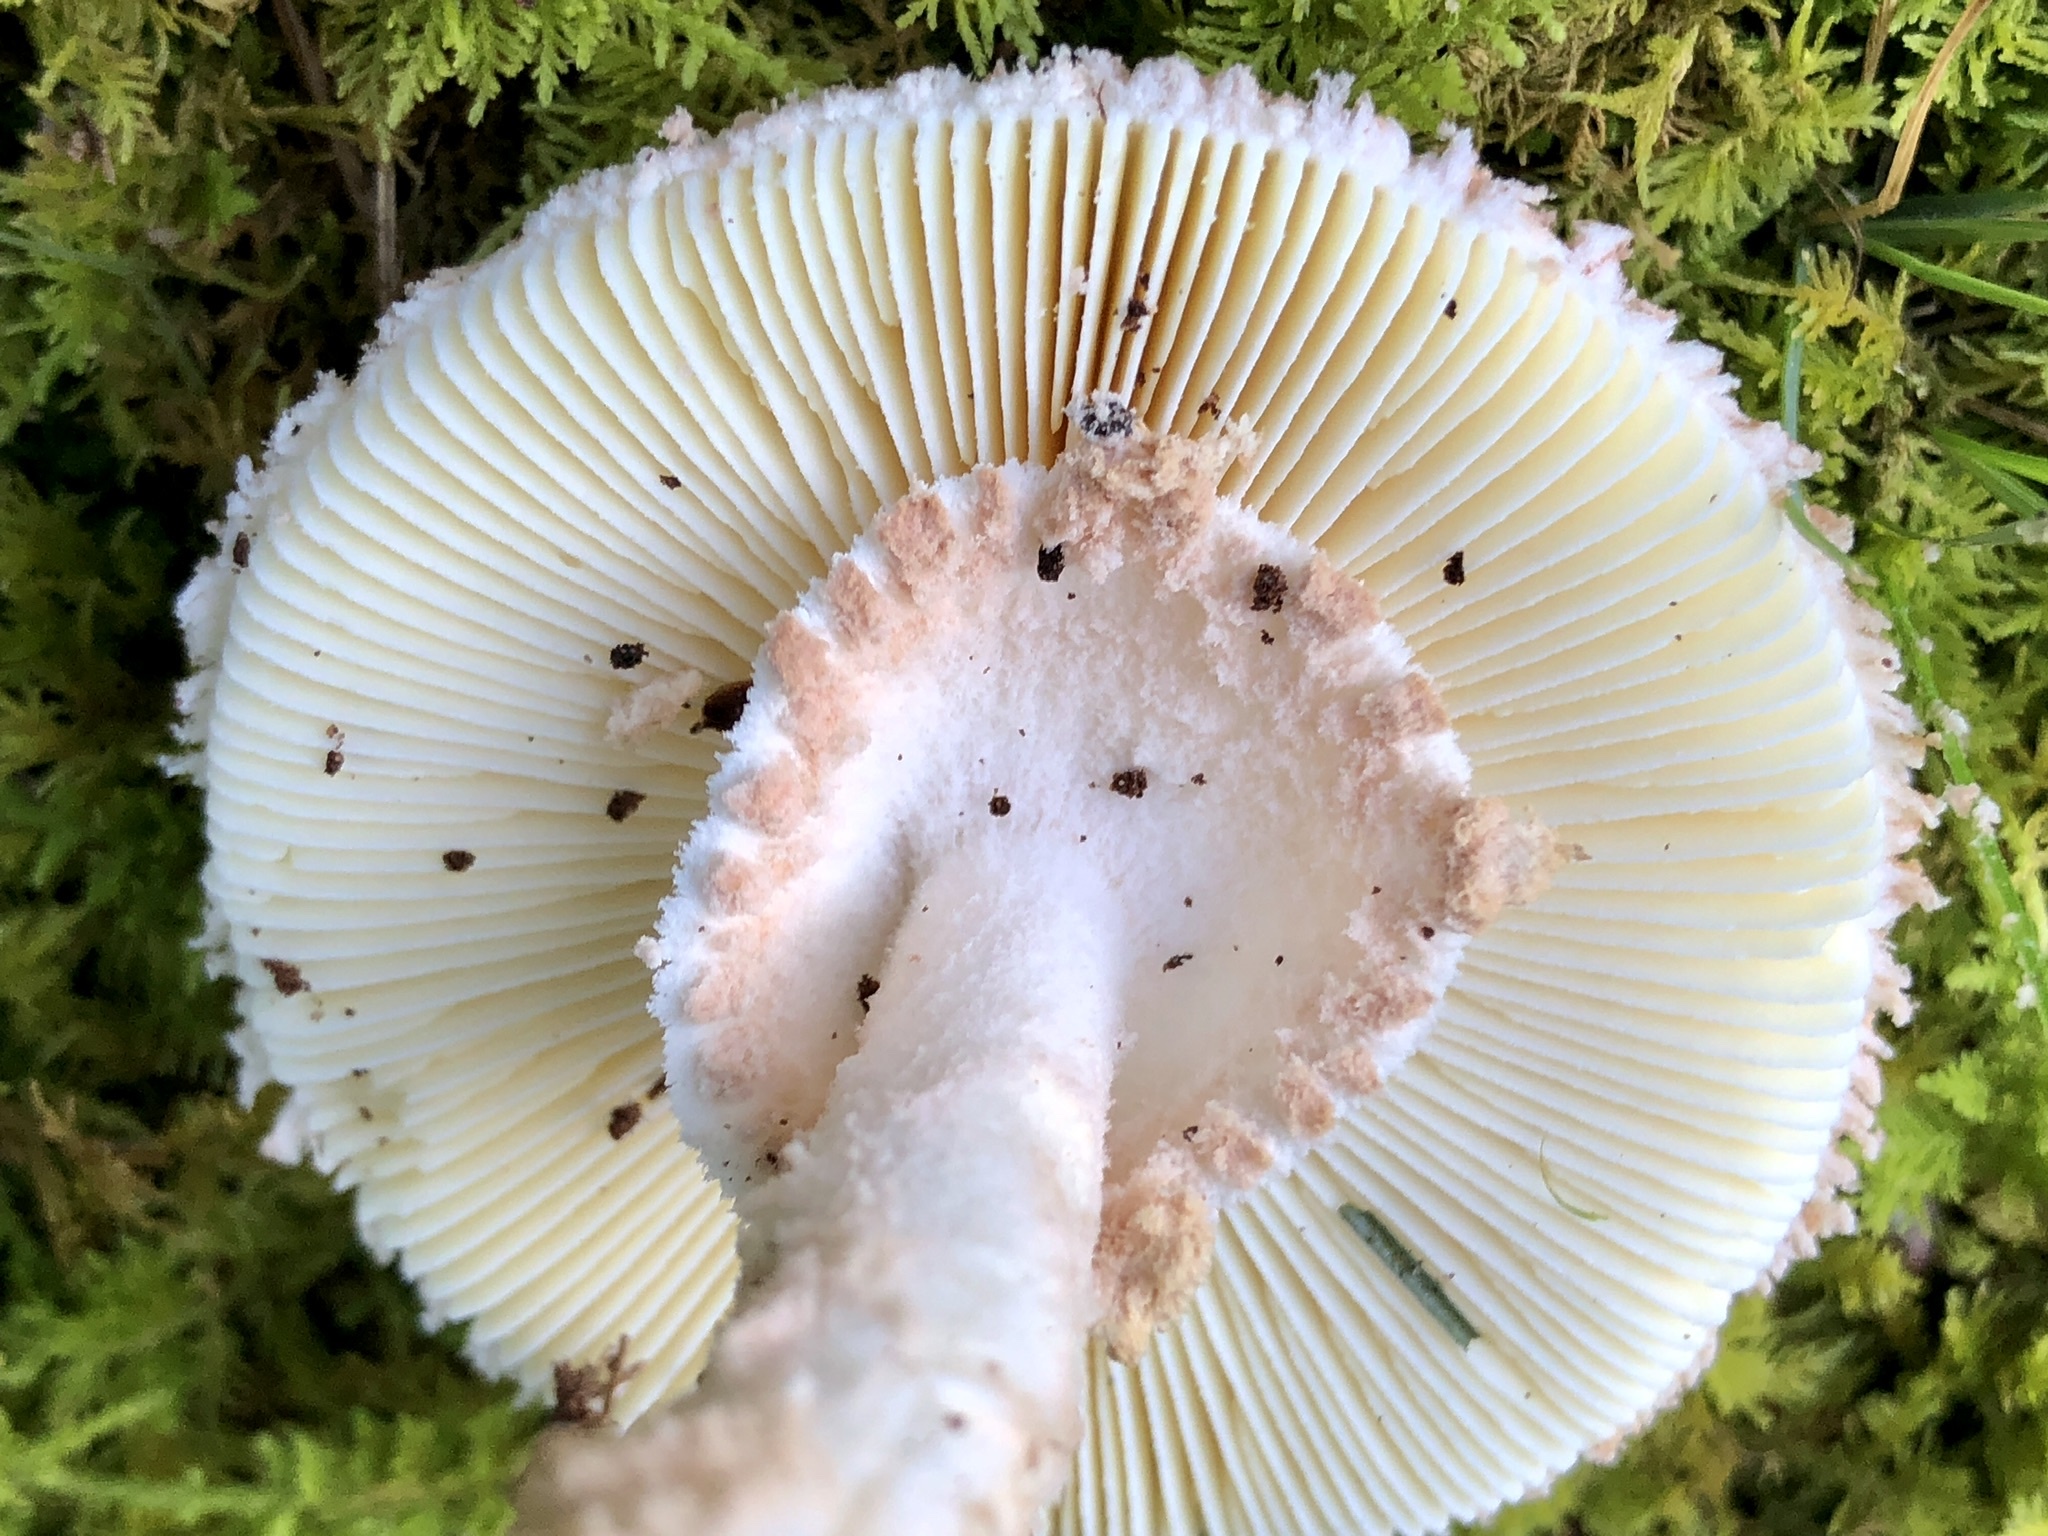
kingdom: Fungi
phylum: Basidiomycota
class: Agaricomycetes
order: Agaricales
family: Amanitaceae
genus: Amanita
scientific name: Amanita roseotincta
